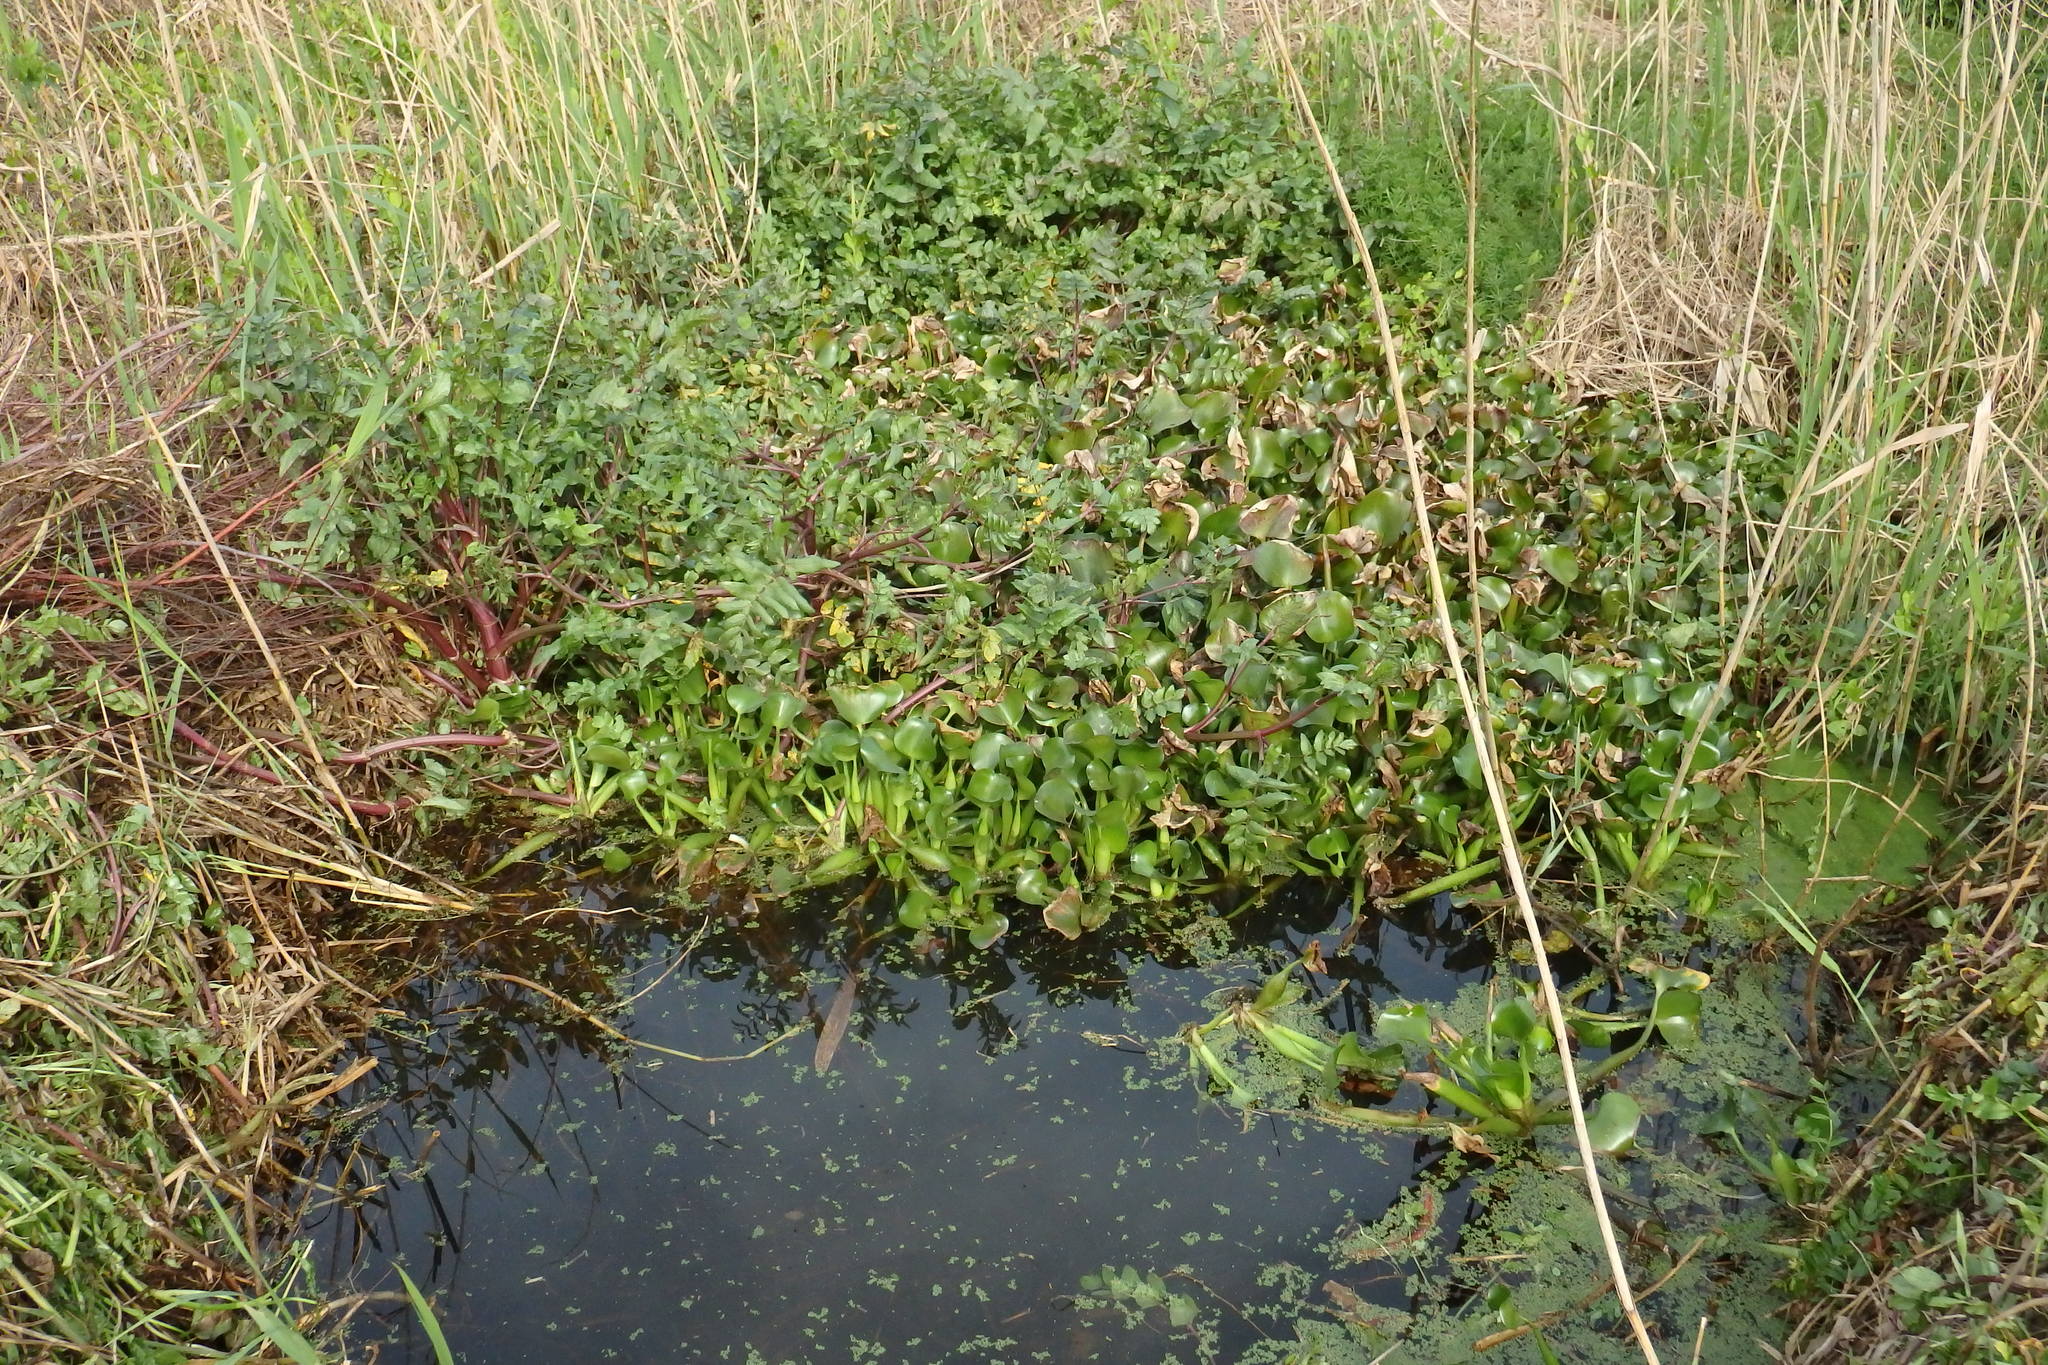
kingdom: Plantae
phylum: Tracheophyta
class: Liliopsida
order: Commelinales
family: Pontederiaceae
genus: Pontederia
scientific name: Pontederia crassipes
